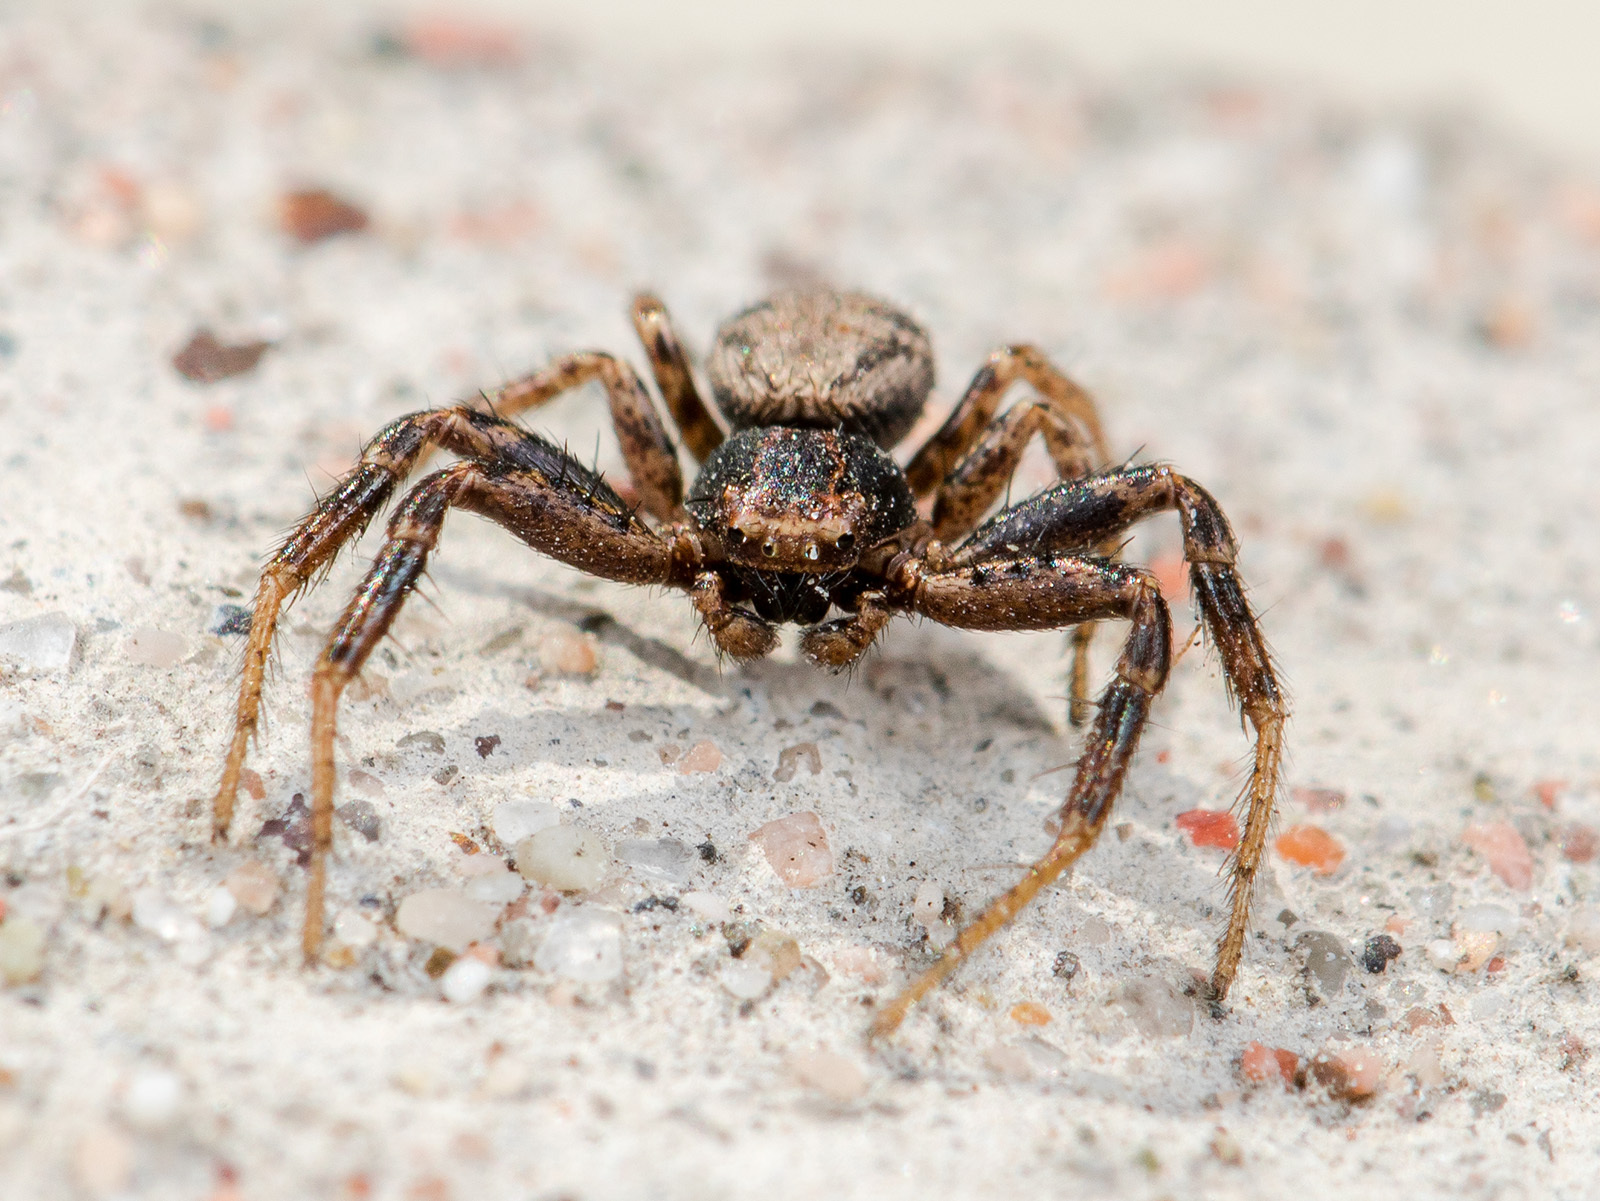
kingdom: Animalia
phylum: Arthropoda
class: Arachnida
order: Araneae
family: Thomisidae
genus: Psammitis
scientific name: Psammitis minor
